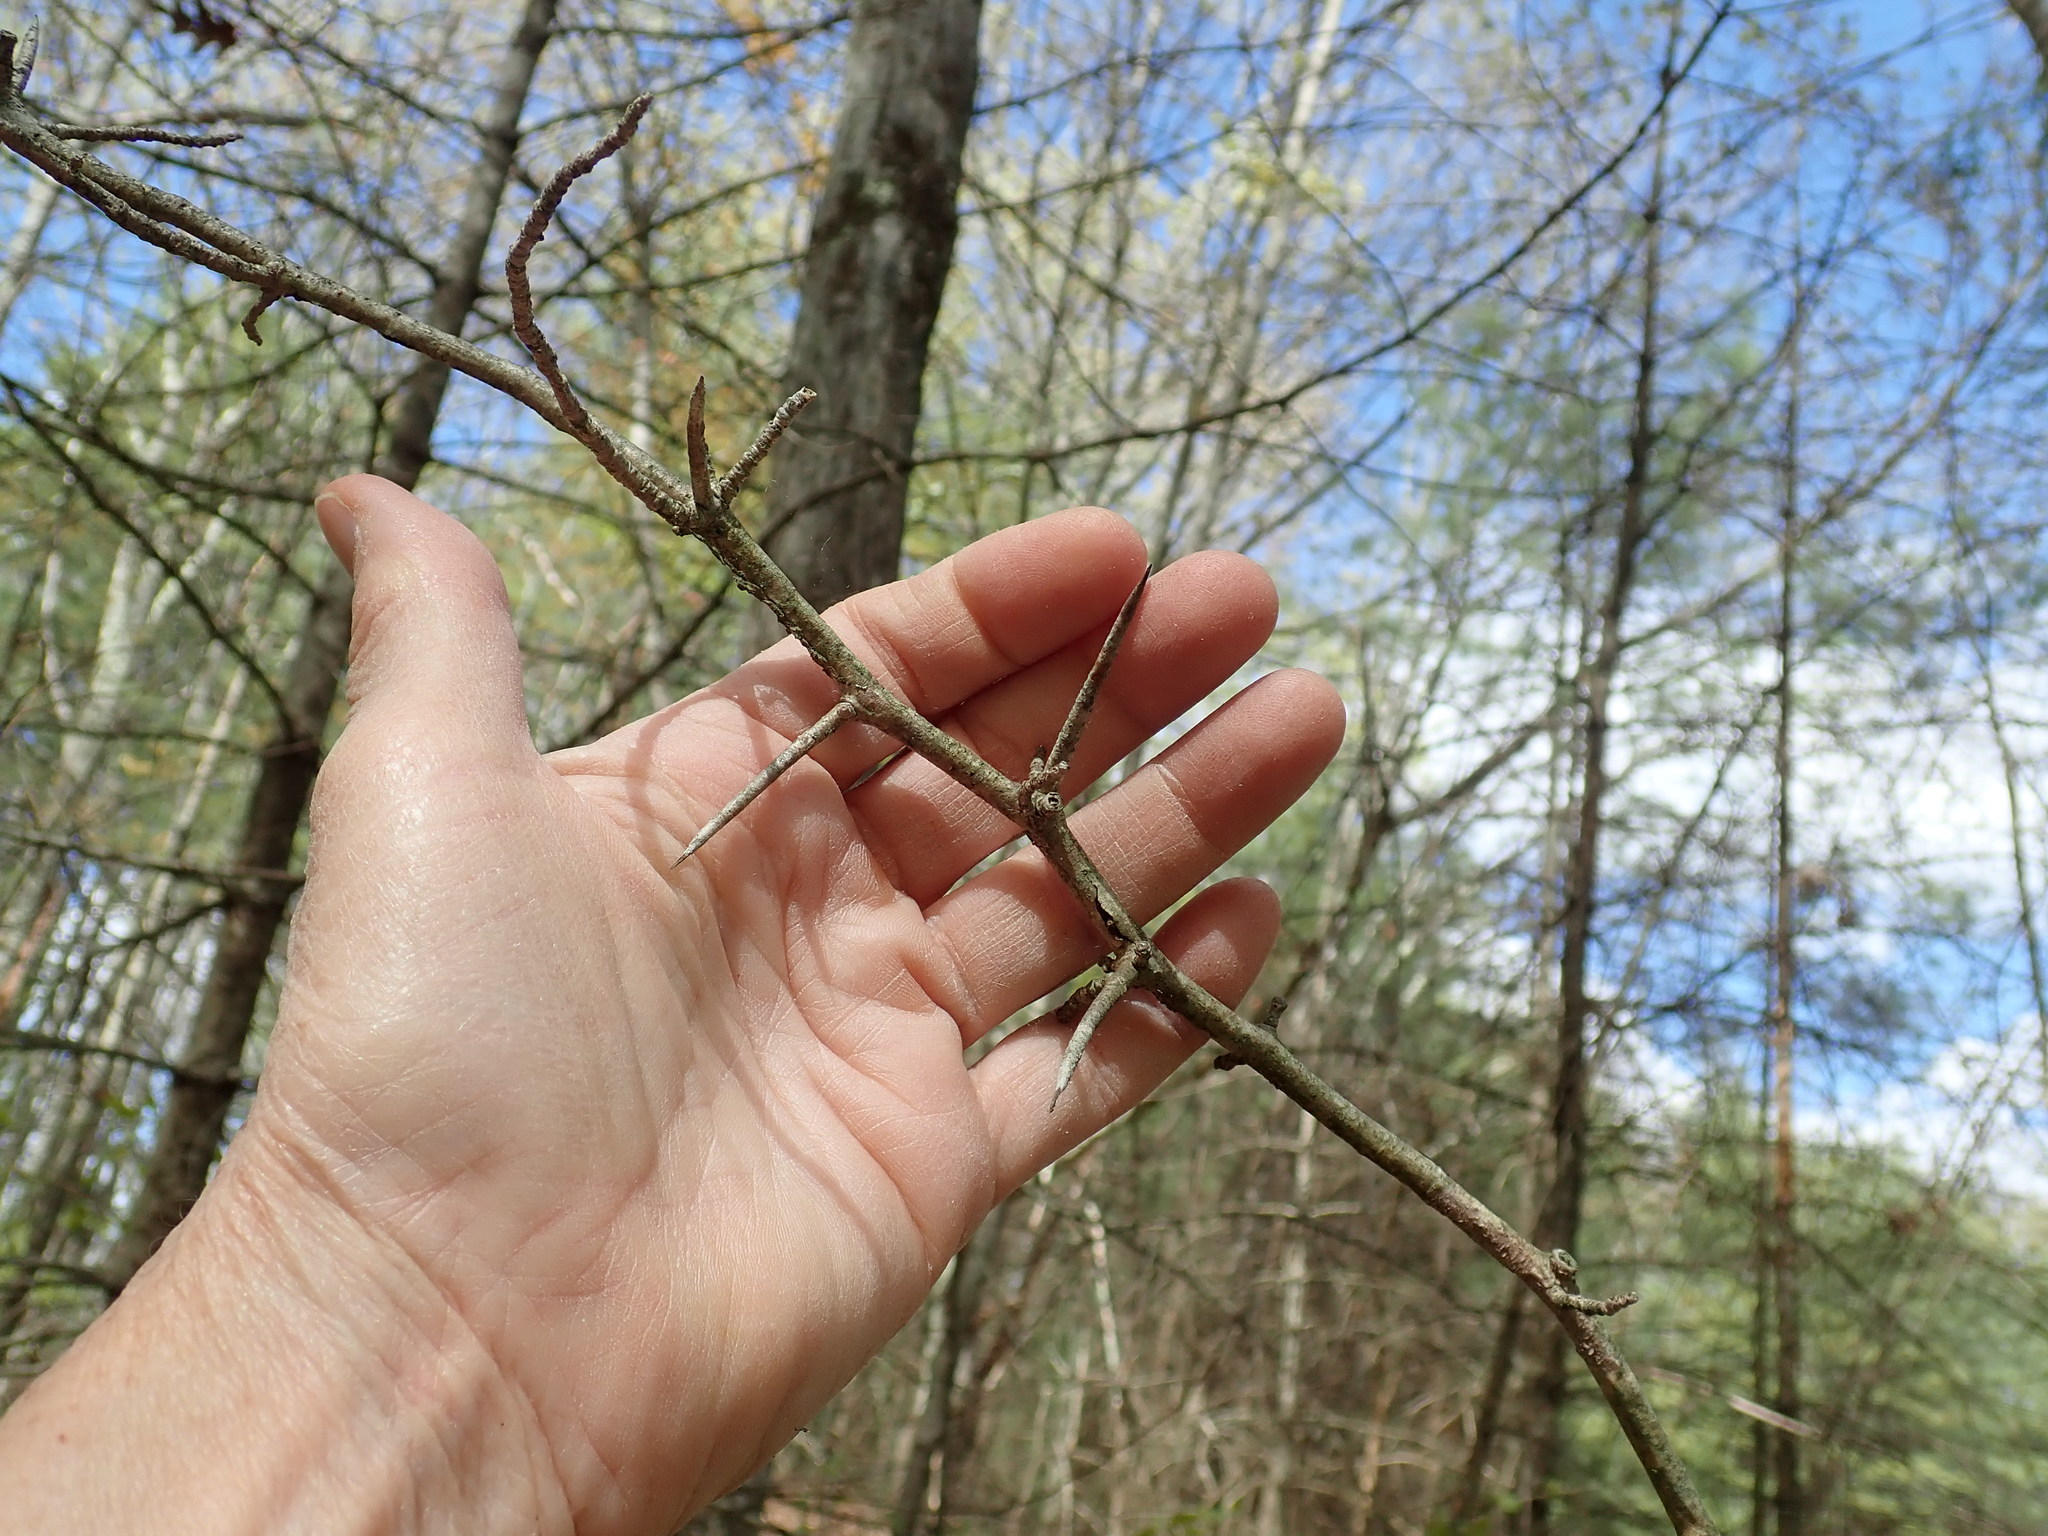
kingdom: Plantae
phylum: Tracheophyta
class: Magnoliopsida
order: Rosales
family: Rosaceae
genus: Crataegus
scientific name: Crataegus
